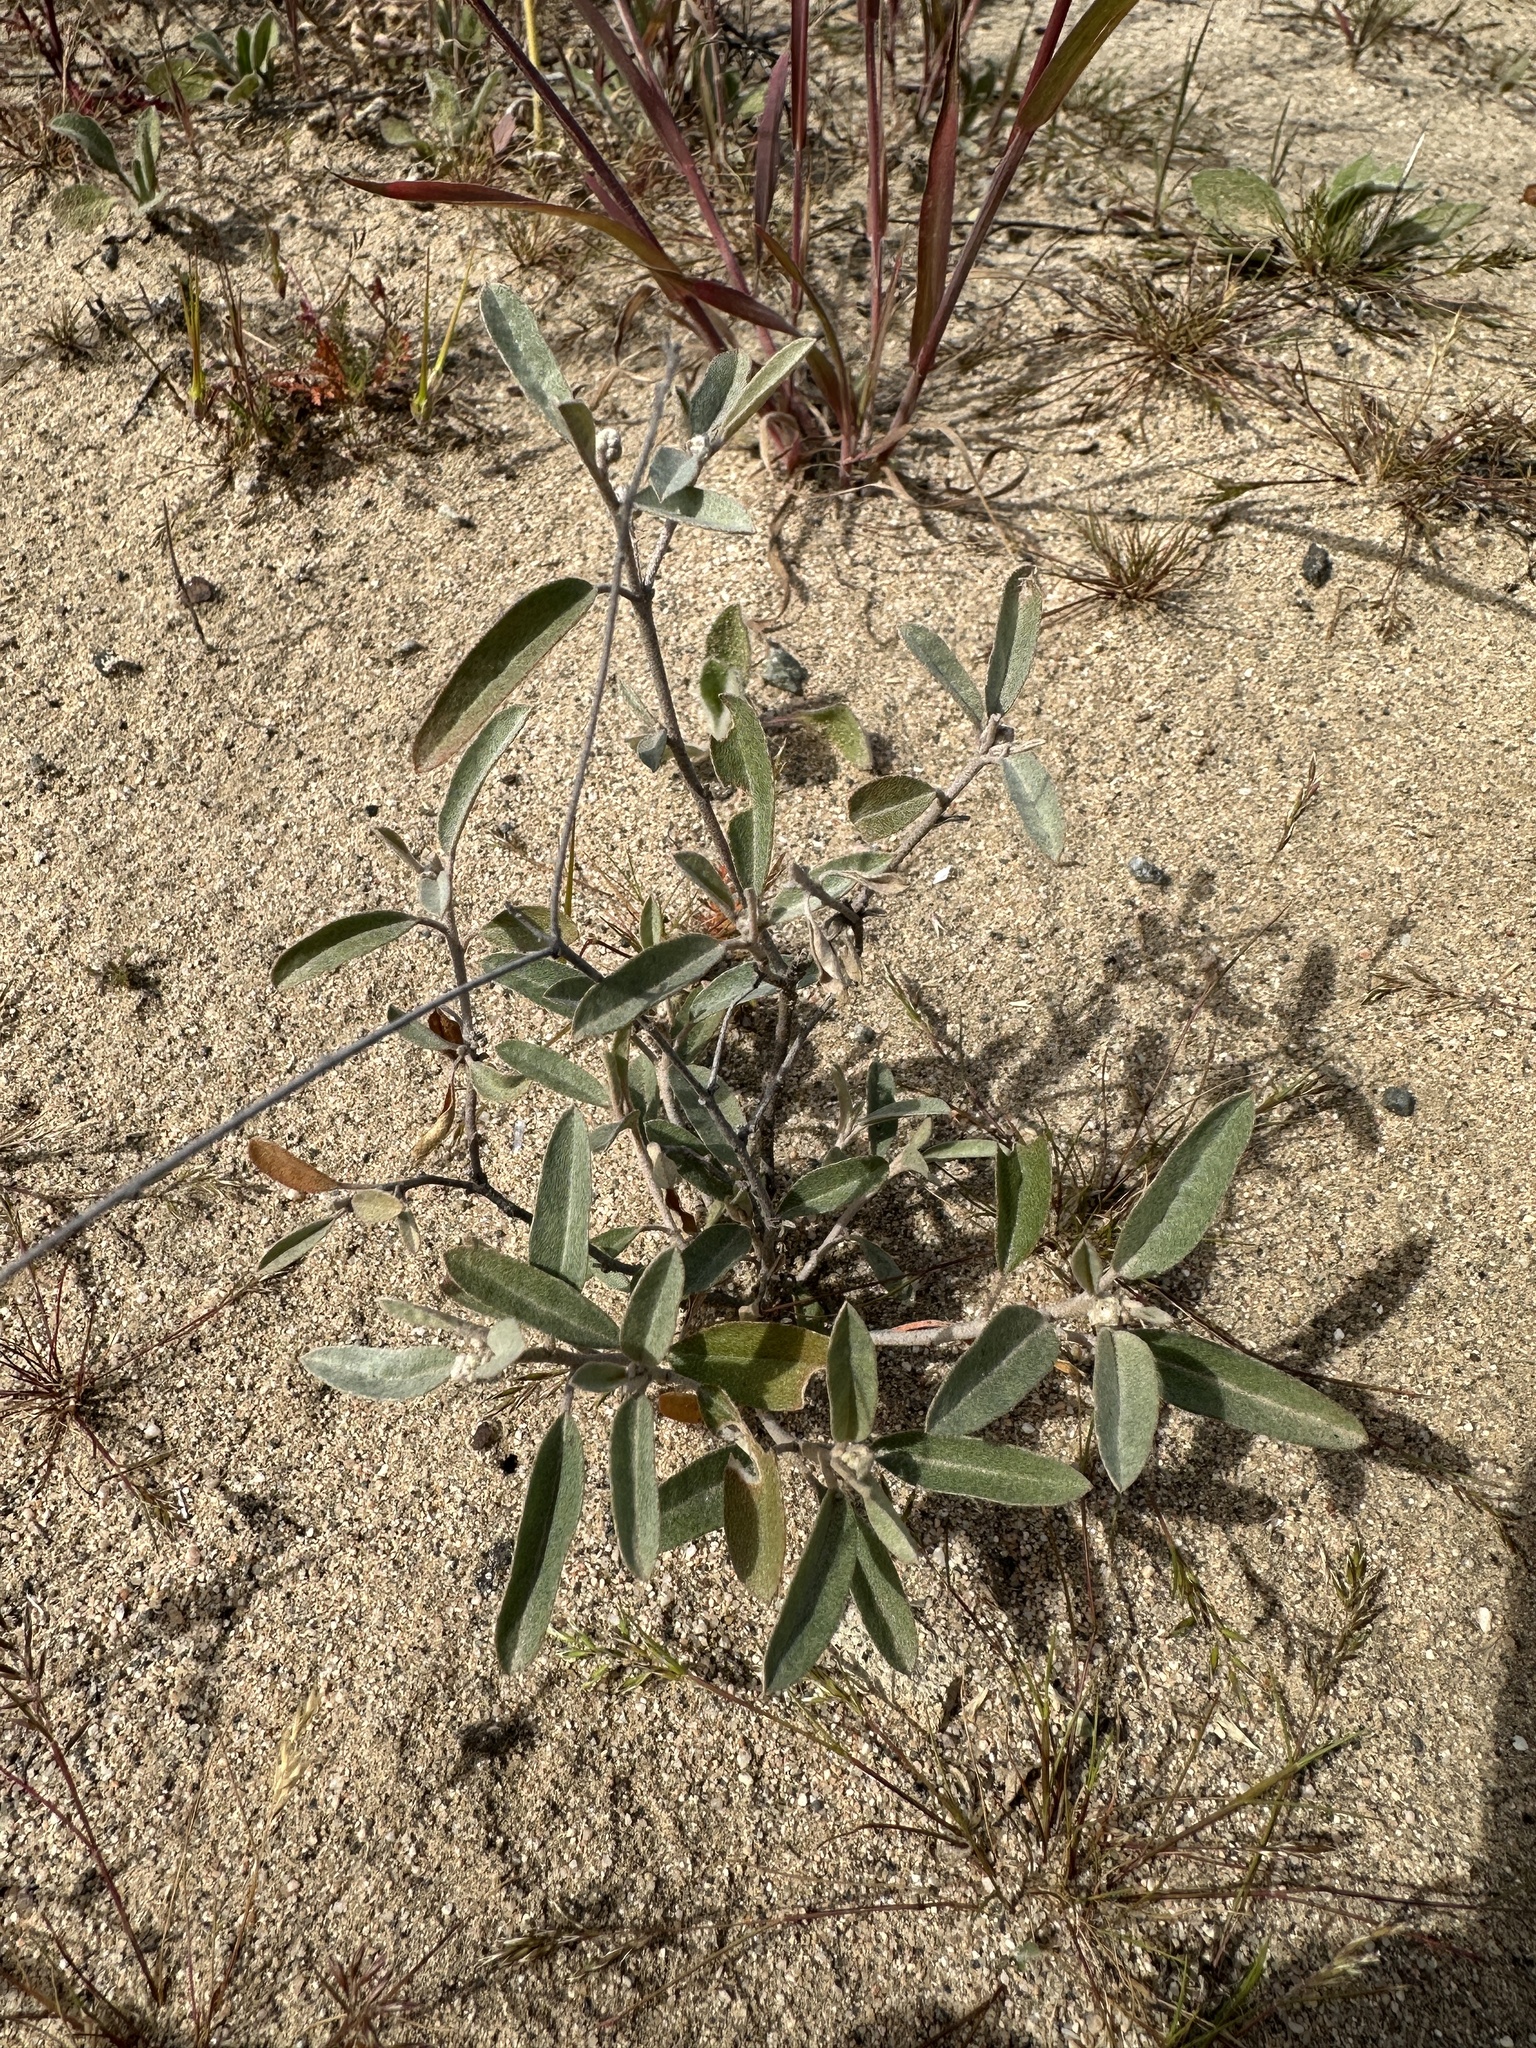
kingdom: Plantae
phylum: Tracheophyta
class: Magnoliopsida
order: Malpighiales
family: Euphorbiaceae
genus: Croton
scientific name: Croton californicus
